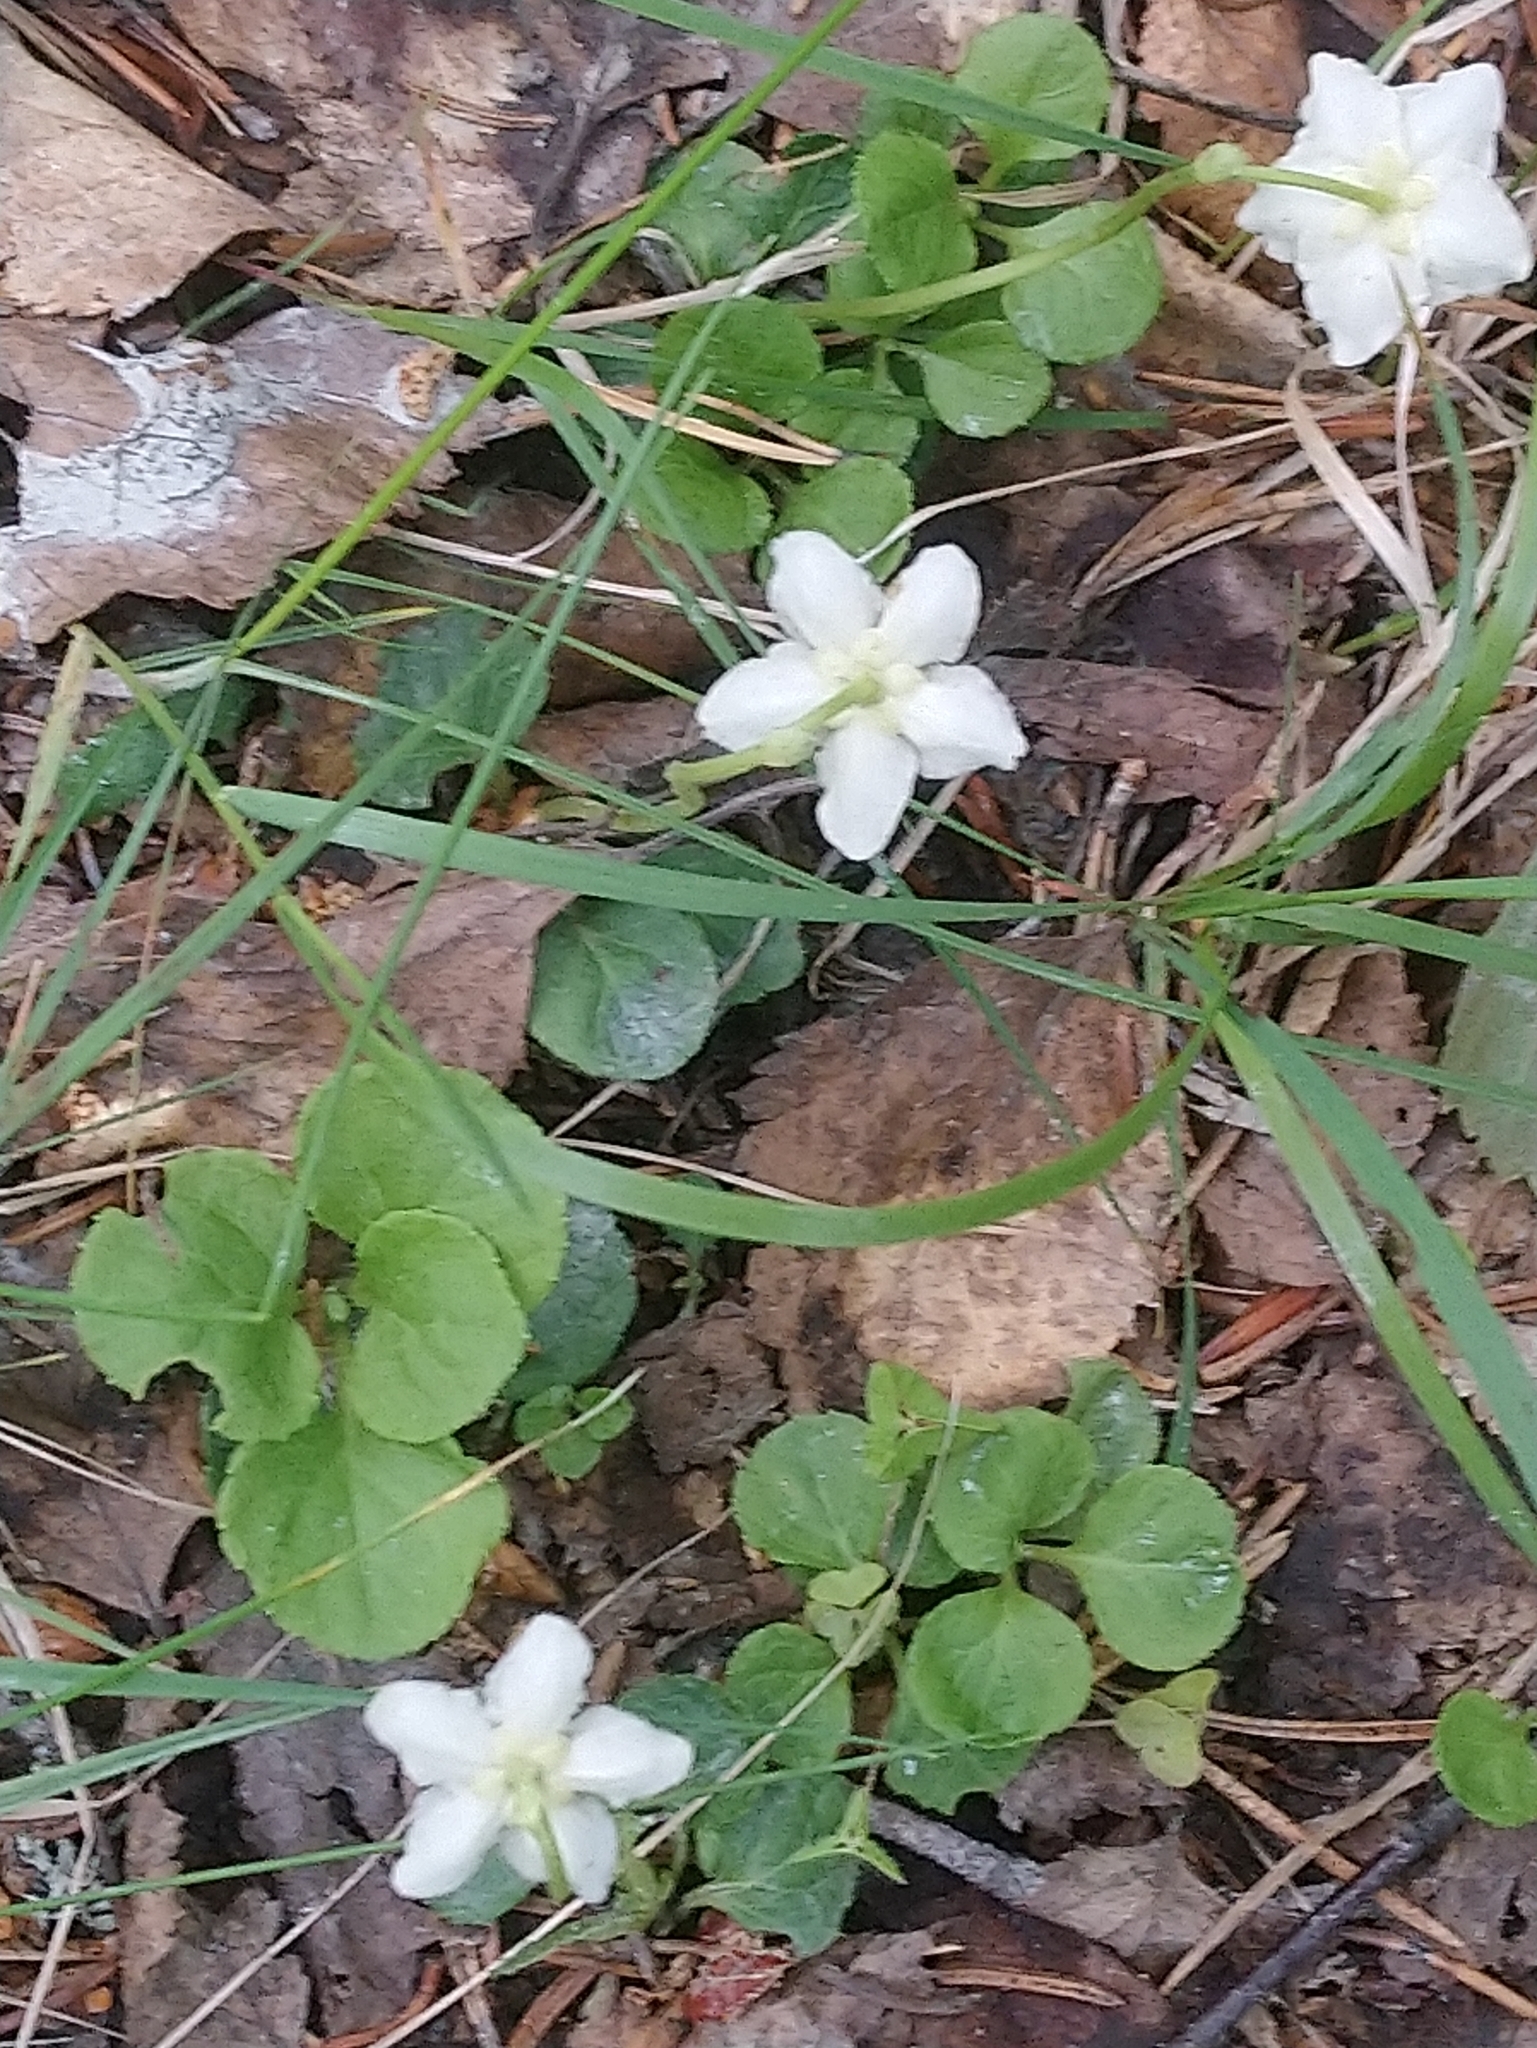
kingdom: Plantae
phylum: Tracheophyta
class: Magnoliopsida
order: Ericales
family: Ericaceae
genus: Moneses
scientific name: Moneses uniflora
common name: One-flowered wintergreen
